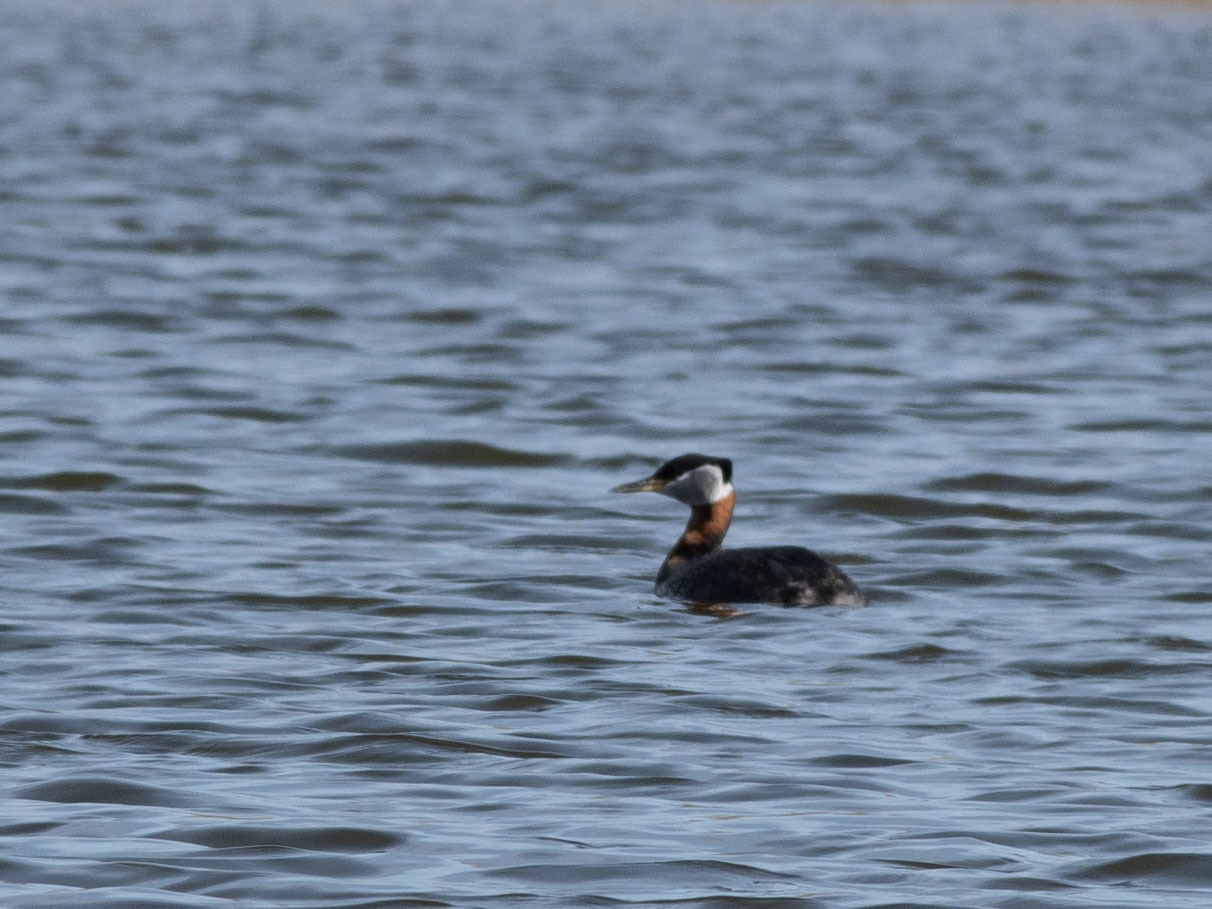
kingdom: Animalia
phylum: Chordata
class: Aves
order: Podicipediformes
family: Podicipedidae
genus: Podiceps
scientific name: Podiceps grisegena
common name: Red-necked grebe
